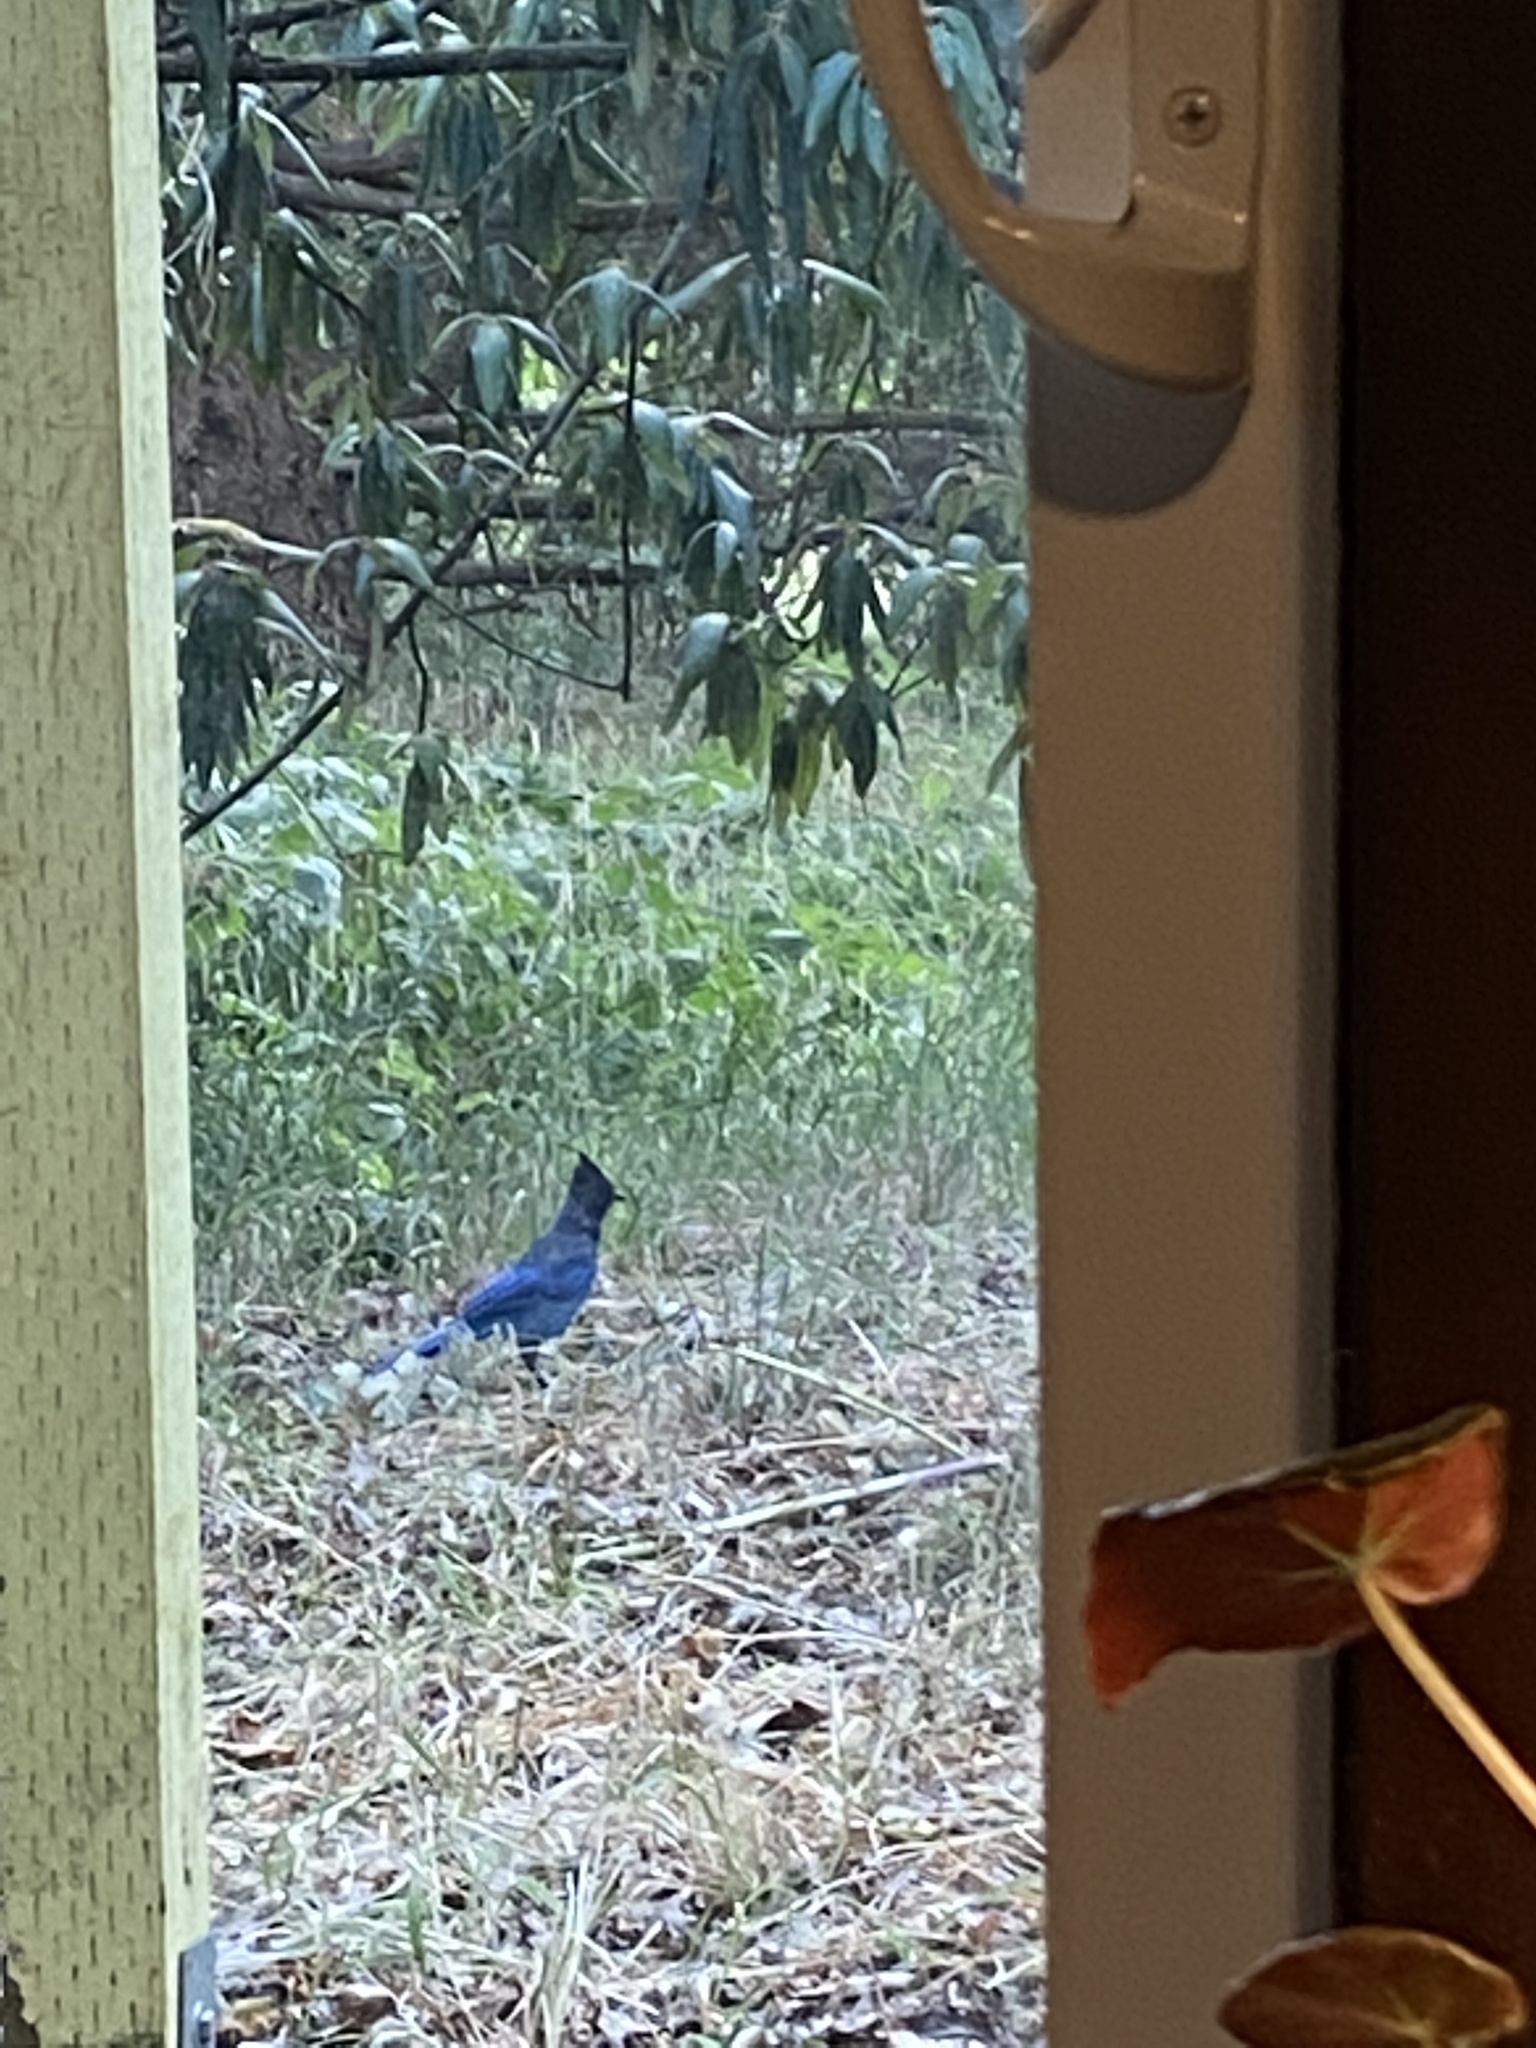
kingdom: Animalia
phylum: Chordata
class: Aves
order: Passeriformes
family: Corvidae
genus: Cyanocitta
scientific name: Cyanocitta stelleri
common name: Steller's jay
